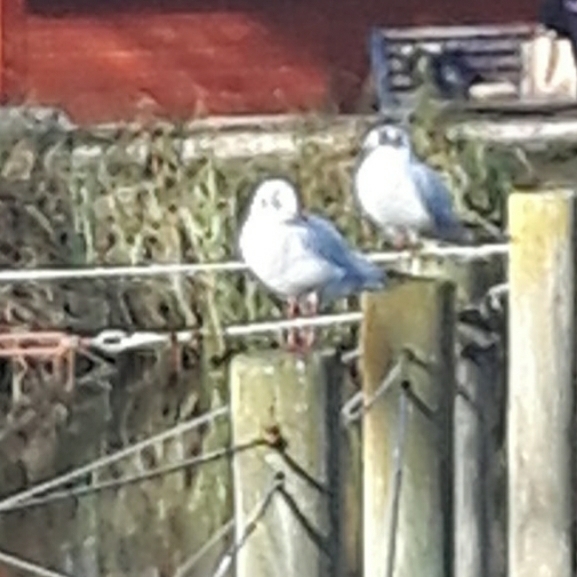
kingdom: Animalia
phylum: Chordata
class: Aves
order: Charadriiformes
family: Laridae
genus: Chroicocephalus
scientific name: Chroicocephalus ridibundus
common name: Black-headed gull
